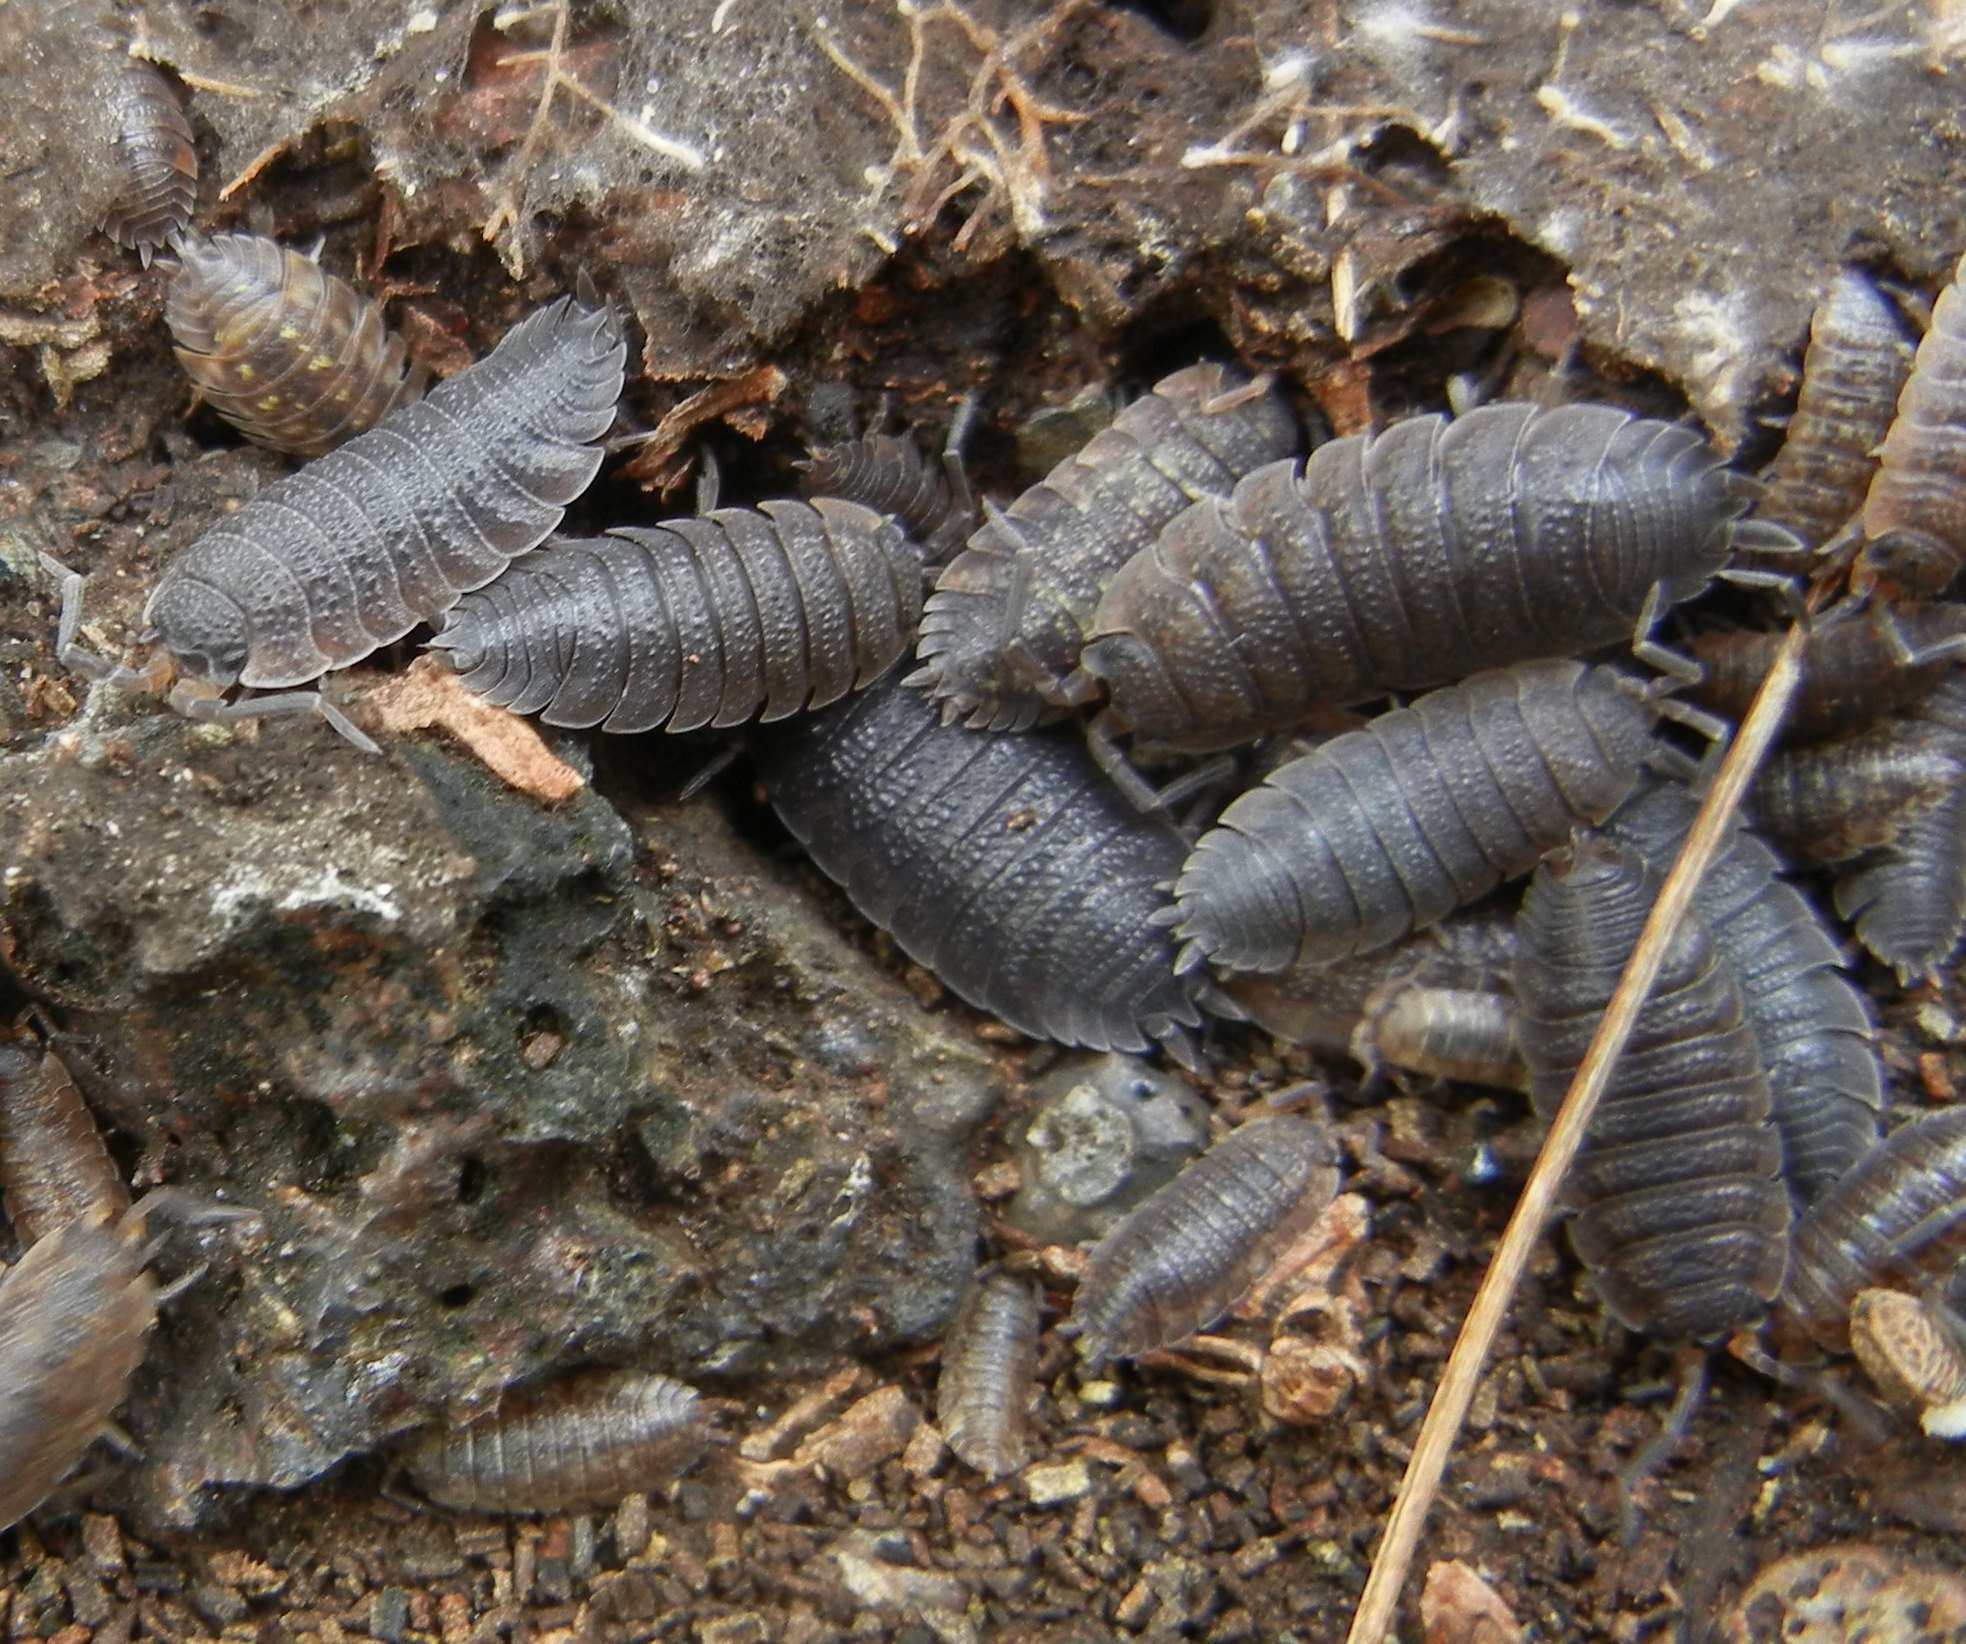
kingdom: Animalia
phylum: Arthropoda
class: Malacostraca
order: Isopoda
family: Porcellionidae
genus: Porcellio
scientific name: Porcellio scaber
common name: Common rough woodlouse
